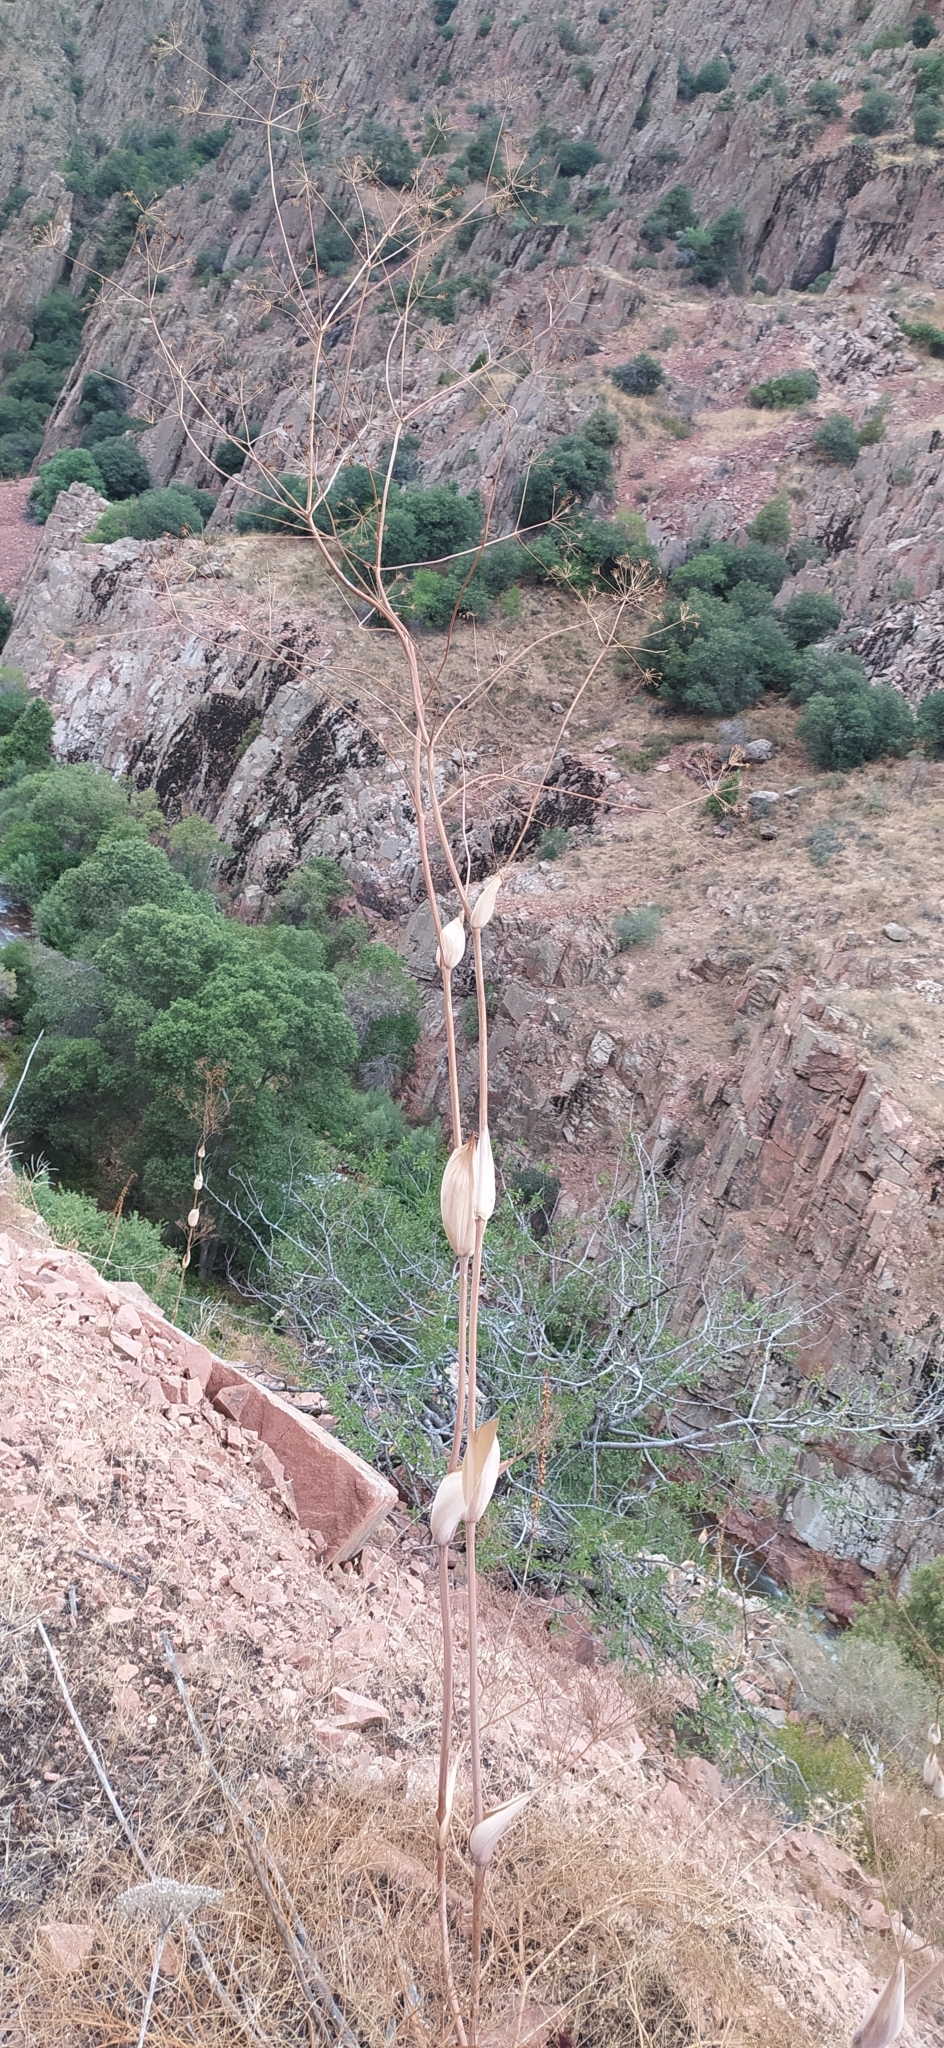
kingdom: Plantae
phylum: Tracheophyta
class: Magnoliopsida
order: Apiales
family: Apiaceae
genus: Ferula
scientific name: Ferula ugamica
